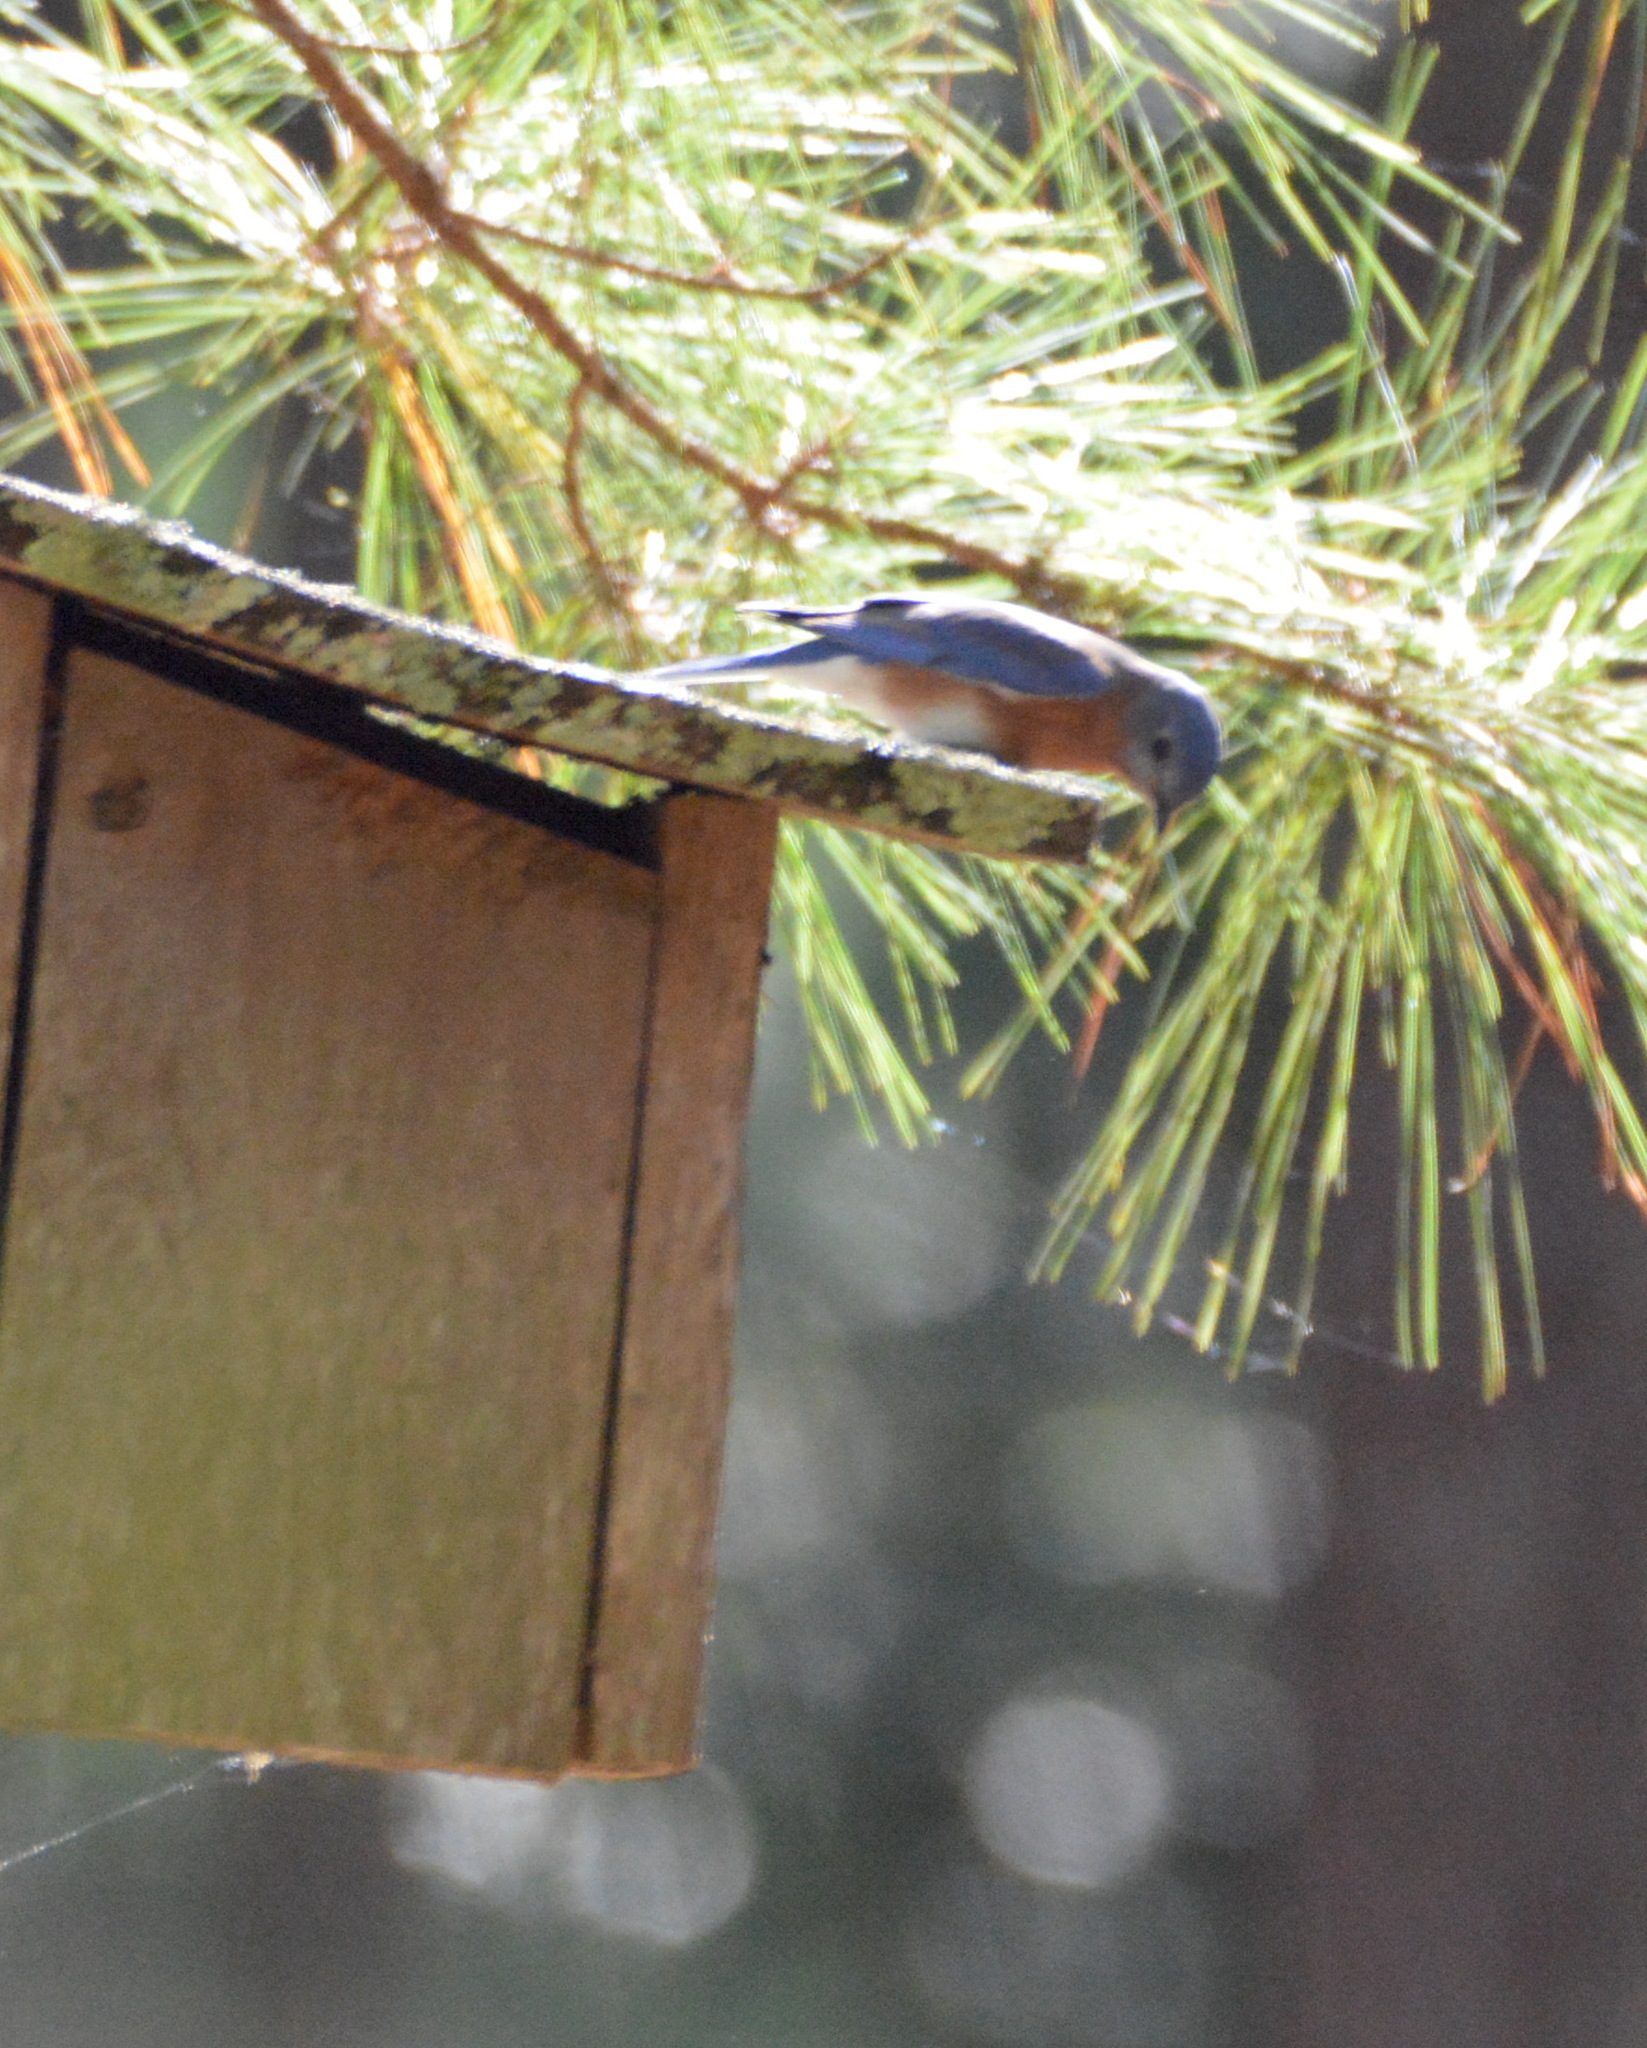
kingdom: Animalia
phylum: Chordata
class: Aves
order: Passeriformes
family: Turdidae
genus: Sialia
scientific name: Sialia sialis
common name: Eastern bluebird
